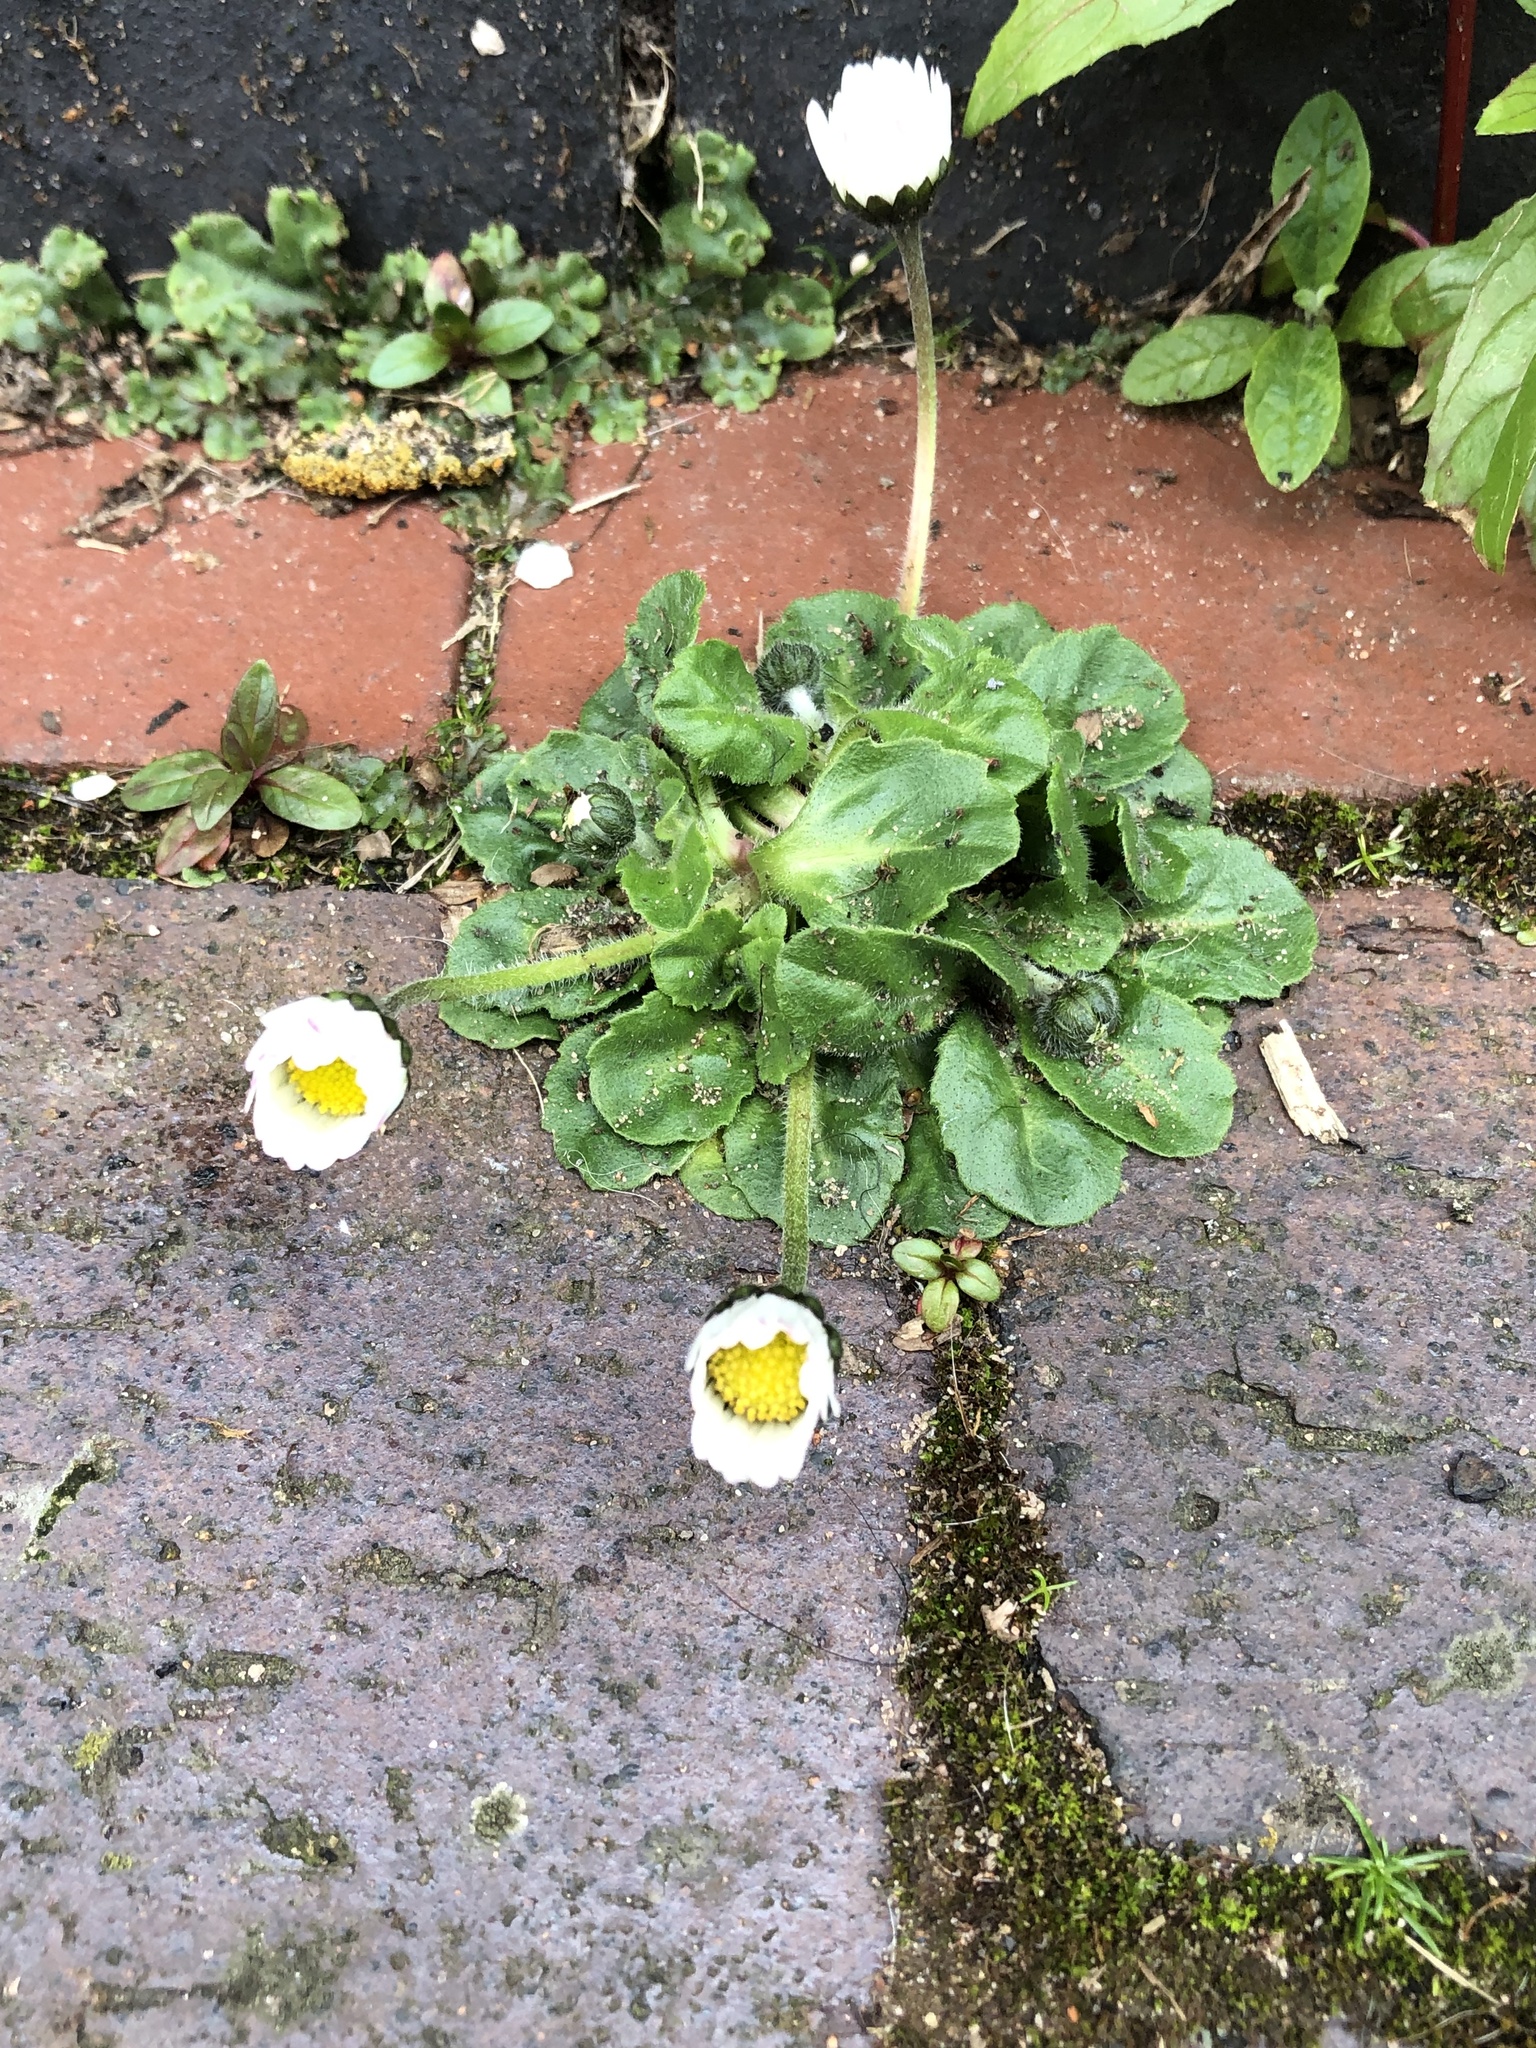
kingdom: Plantae
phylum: Tracheophyta
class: Magnoliopsida
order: Asterales
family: Asteraceae
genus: Bellis
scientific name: Bellis perennis
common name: Lawndaisy
